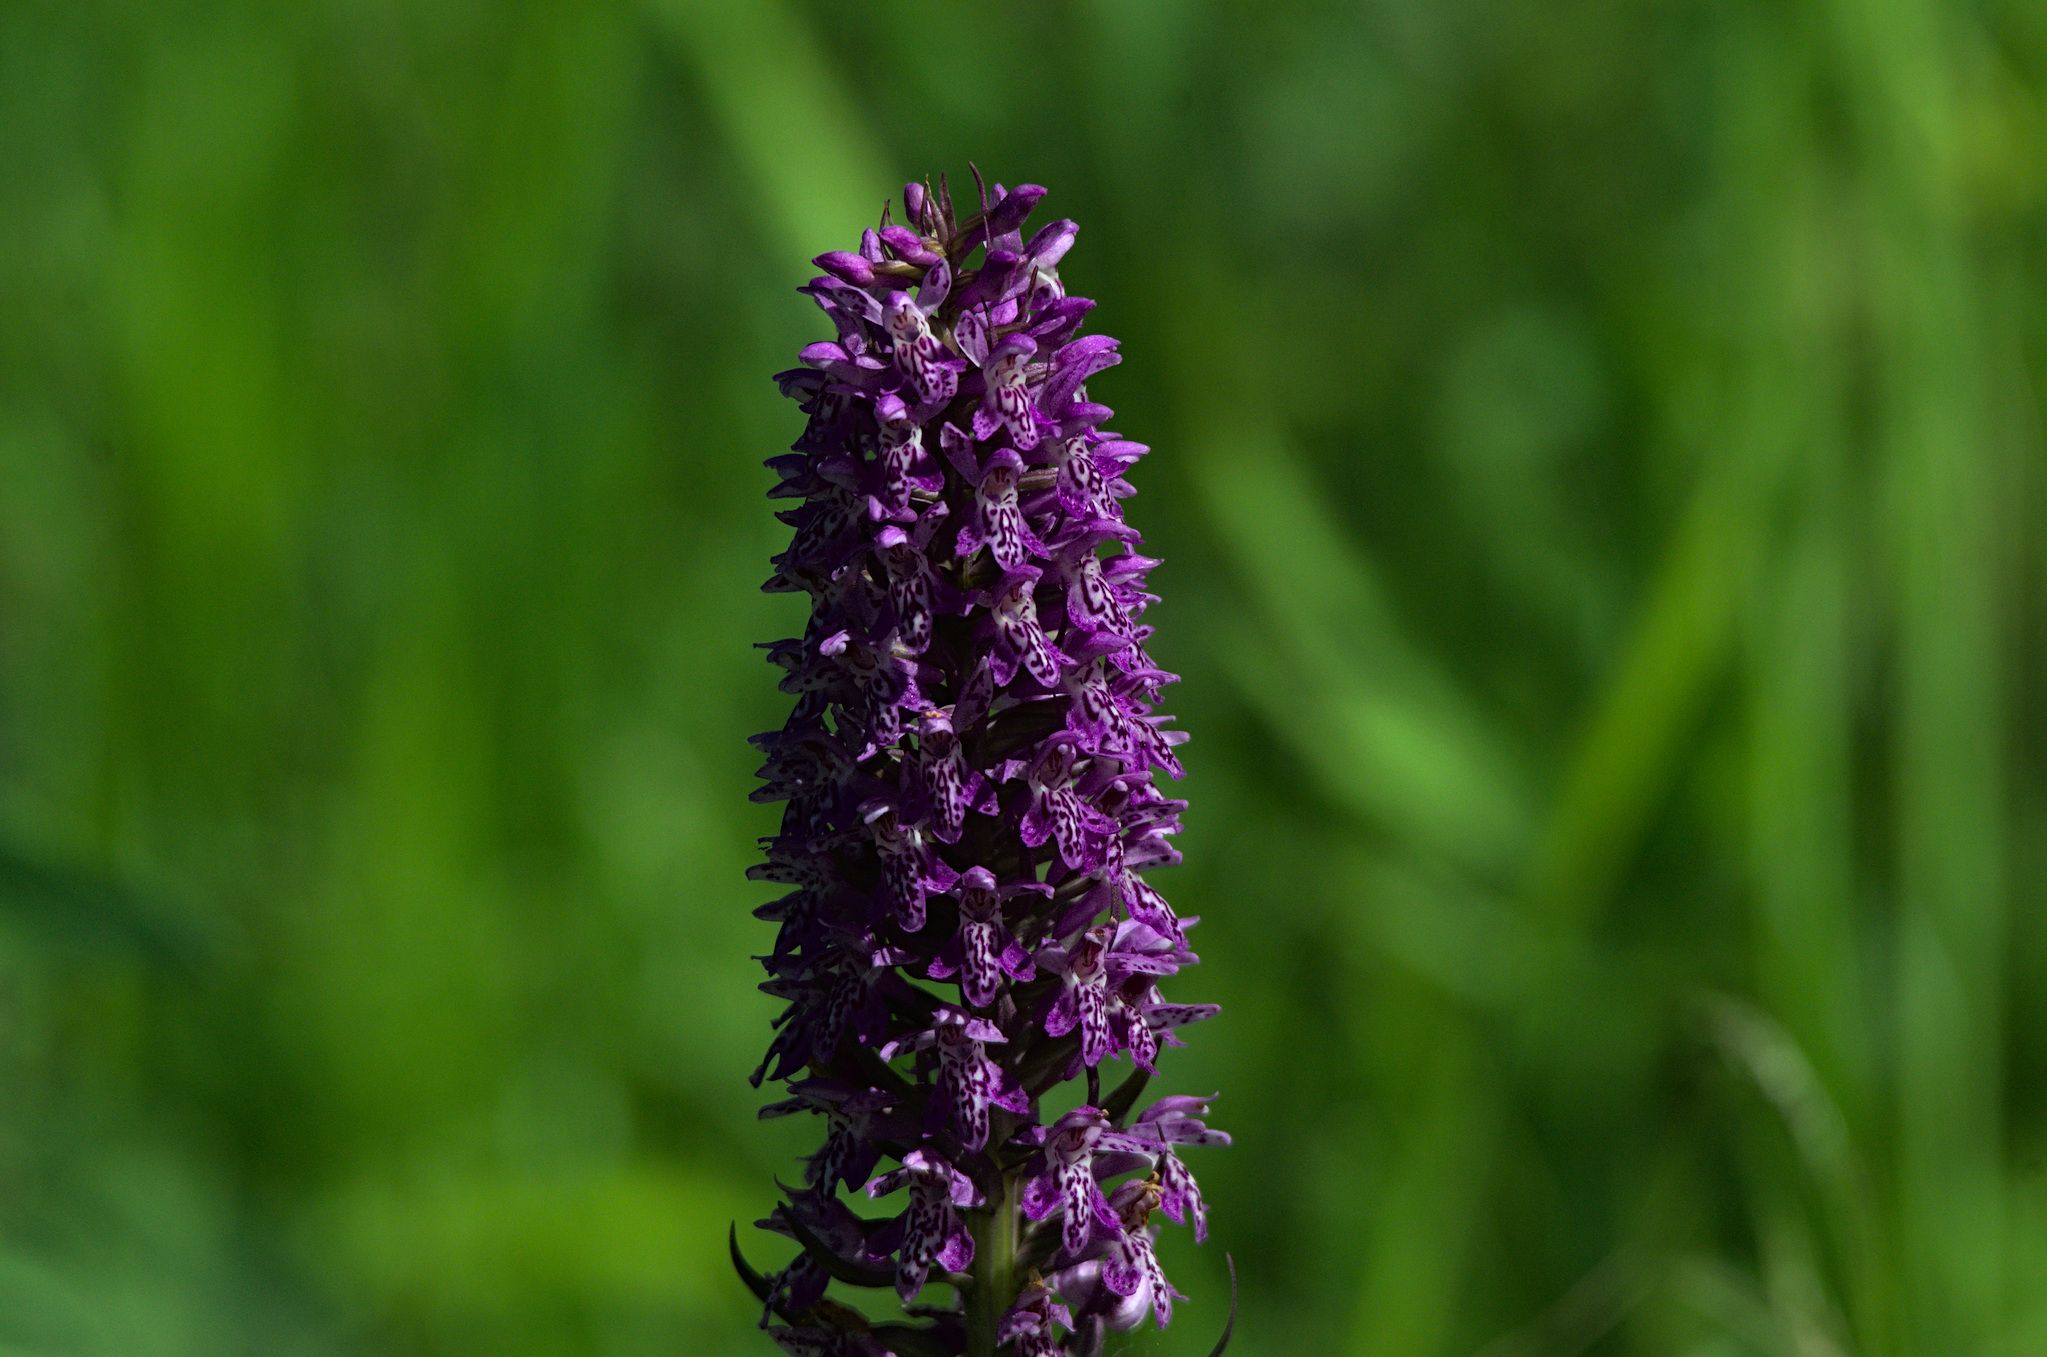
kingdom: Plantae
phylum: Tracheophyta
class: Liliopsida
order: Asparagales
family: Orchidaceae
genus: Dactylorhiza
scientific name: Dactylorhiza sibirica
